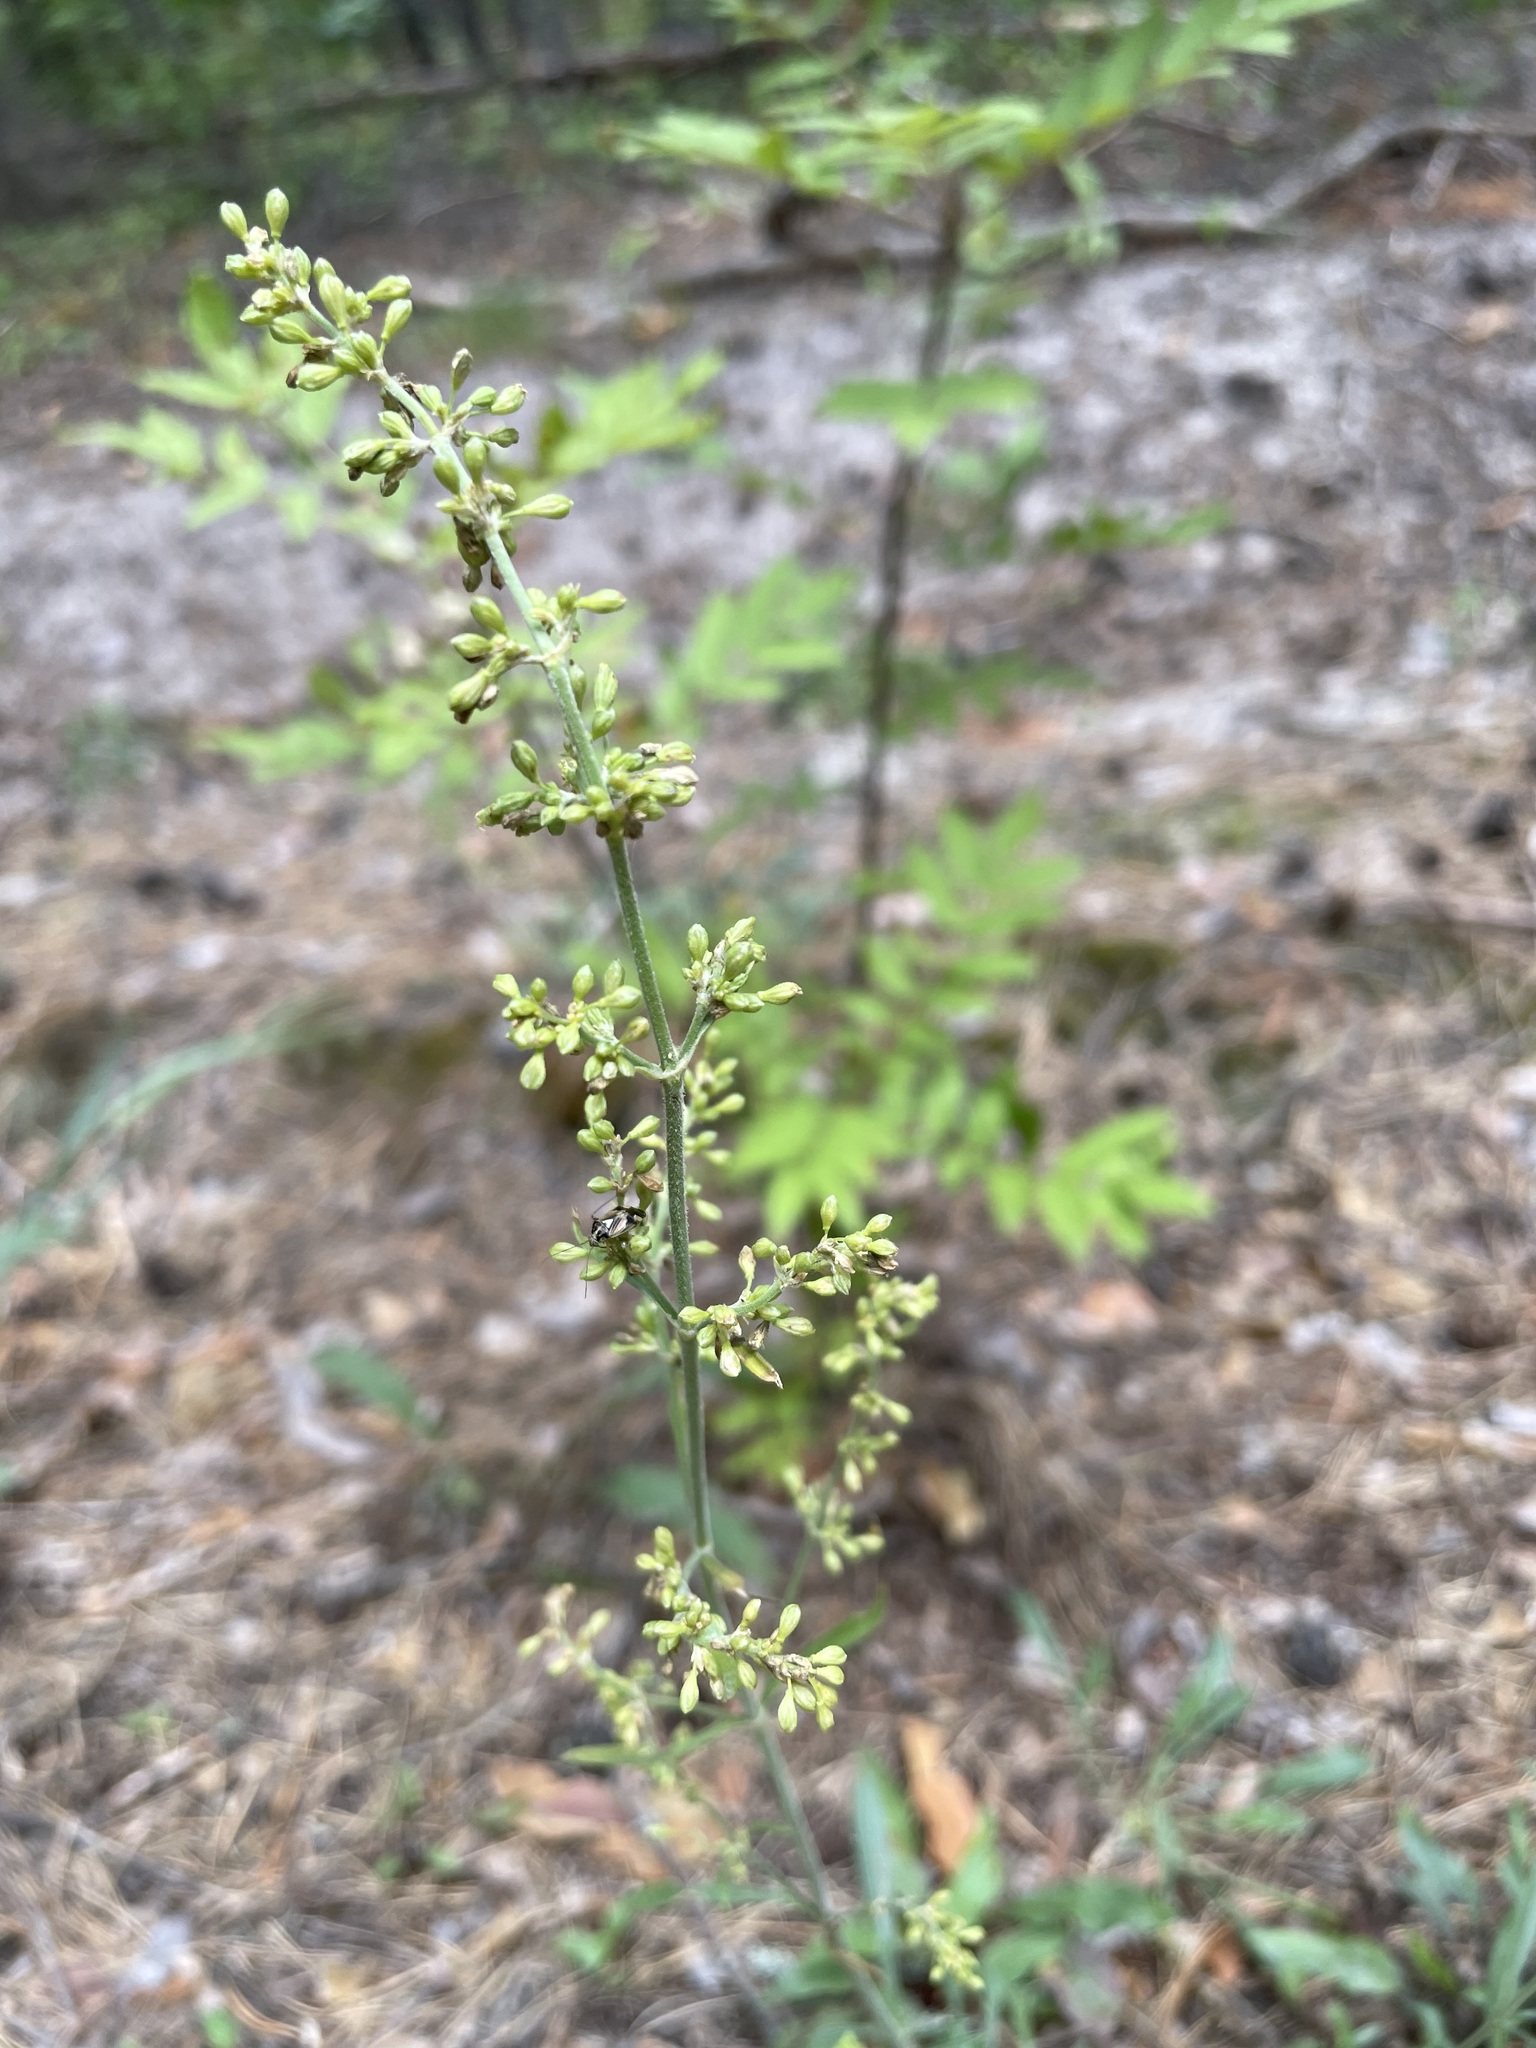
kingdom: Plantae
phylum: Tracheophyta
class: Magnoliopsida
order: Caryophyllales
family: Caryophyllaceae
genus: Silene
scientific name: Silene borysthenica
